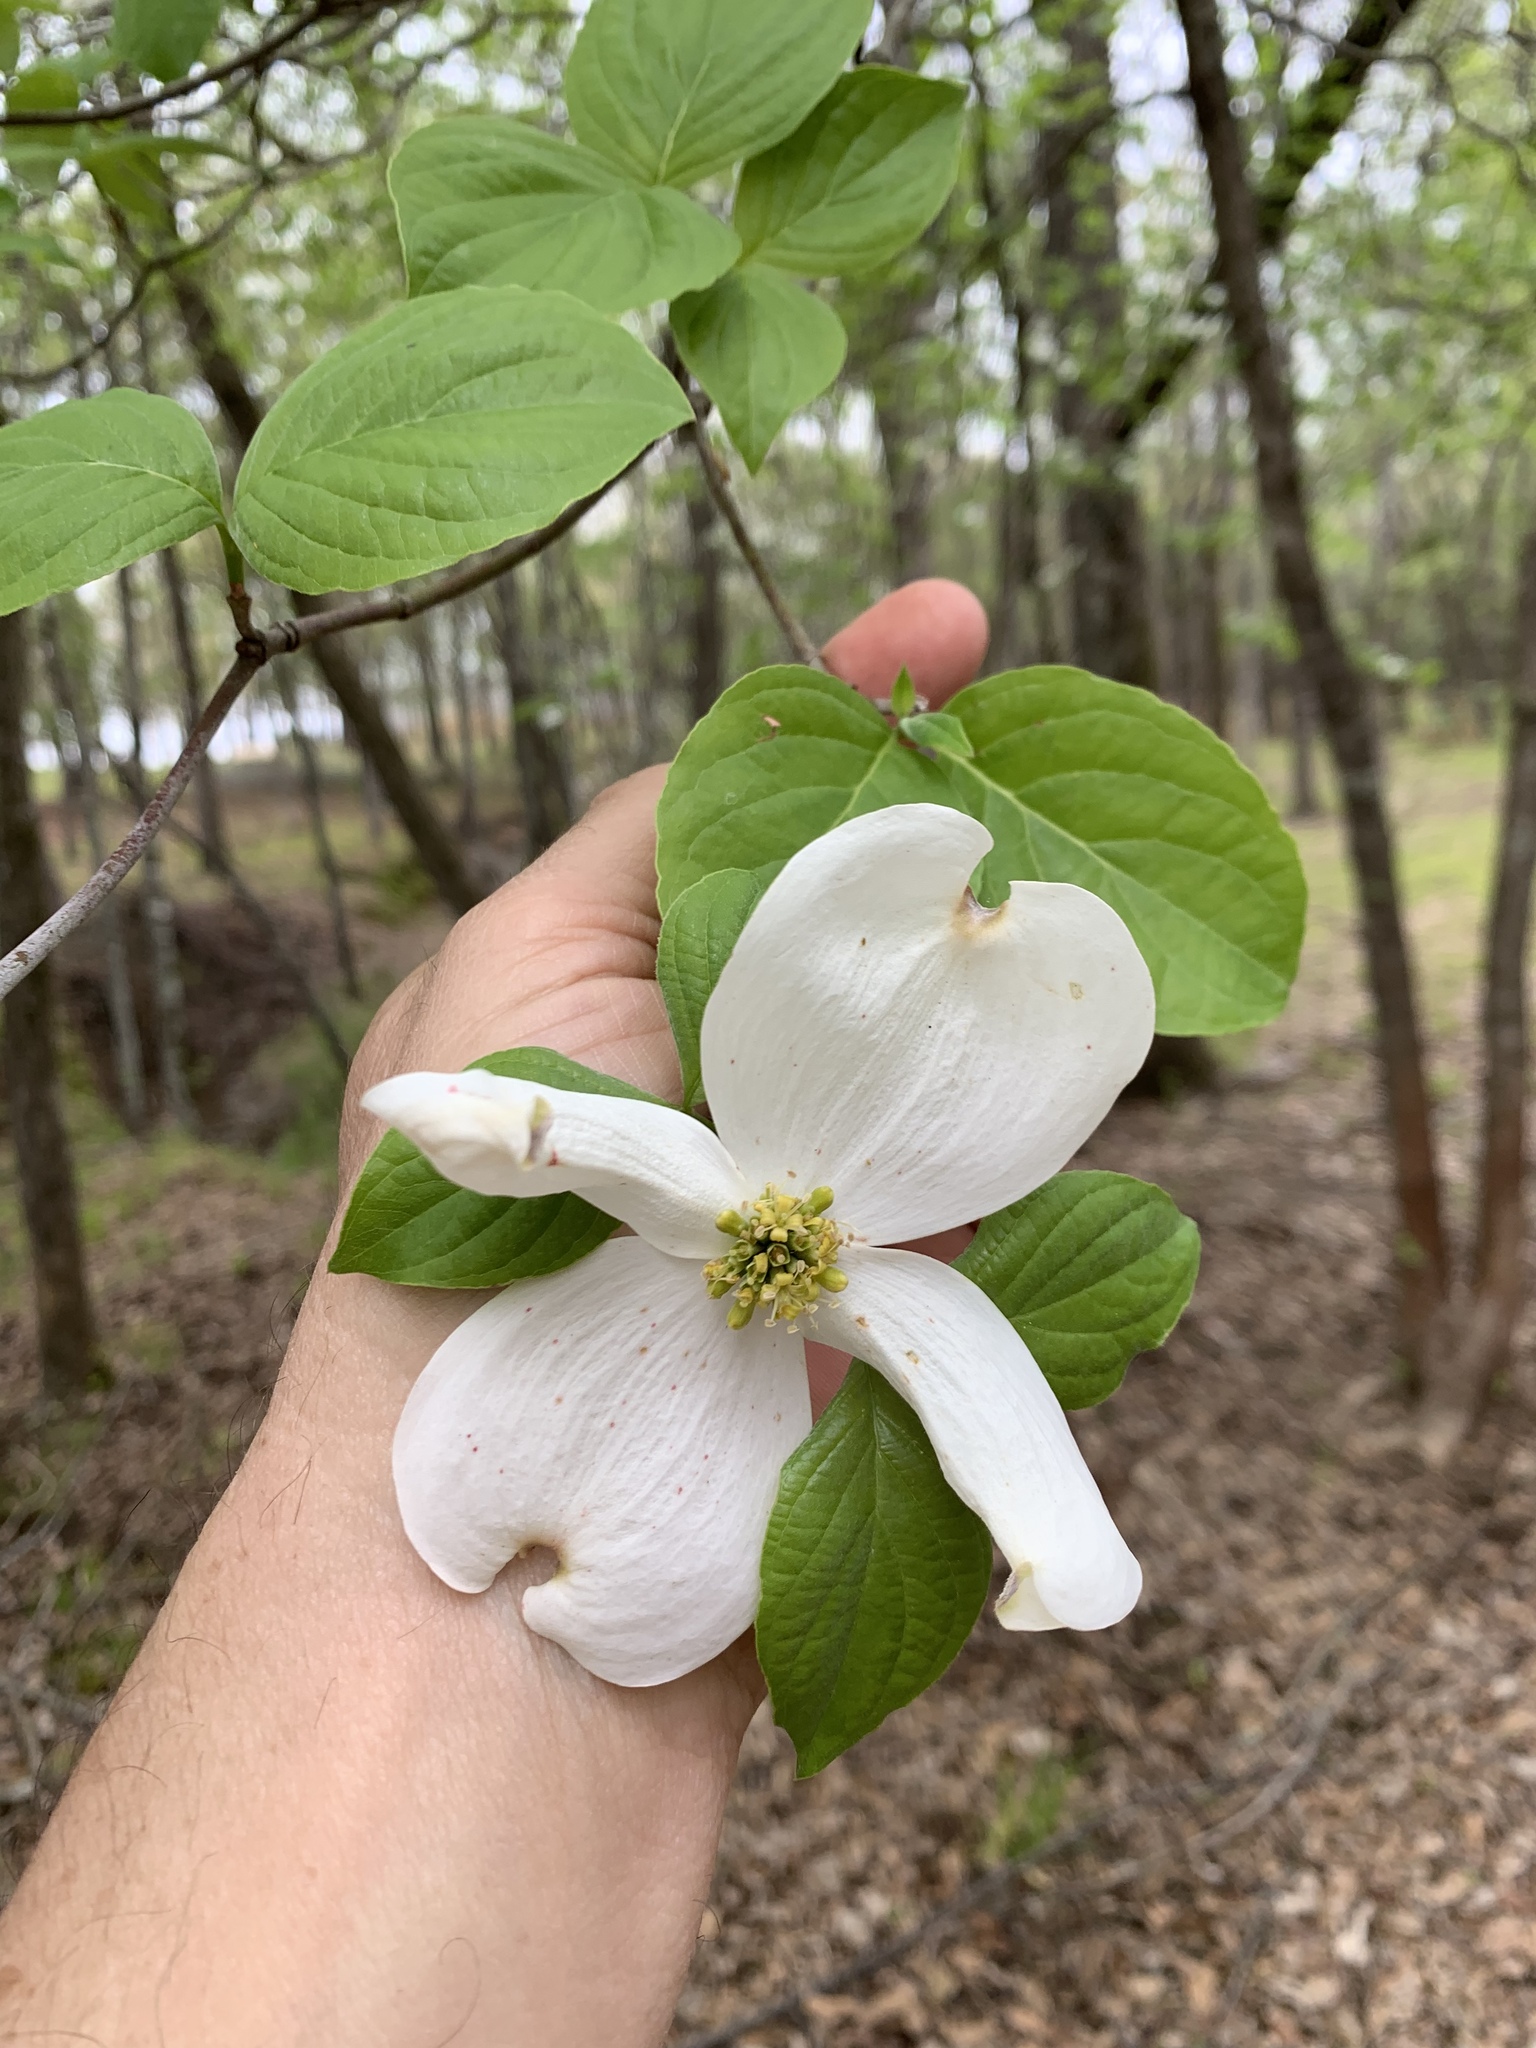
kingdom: Plantae
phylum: Tracheophyta
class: Magnoliopsida
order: Cornales
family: Cornaceae
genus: Cornus
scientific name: Cornus florida
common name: Flowering dogwood
